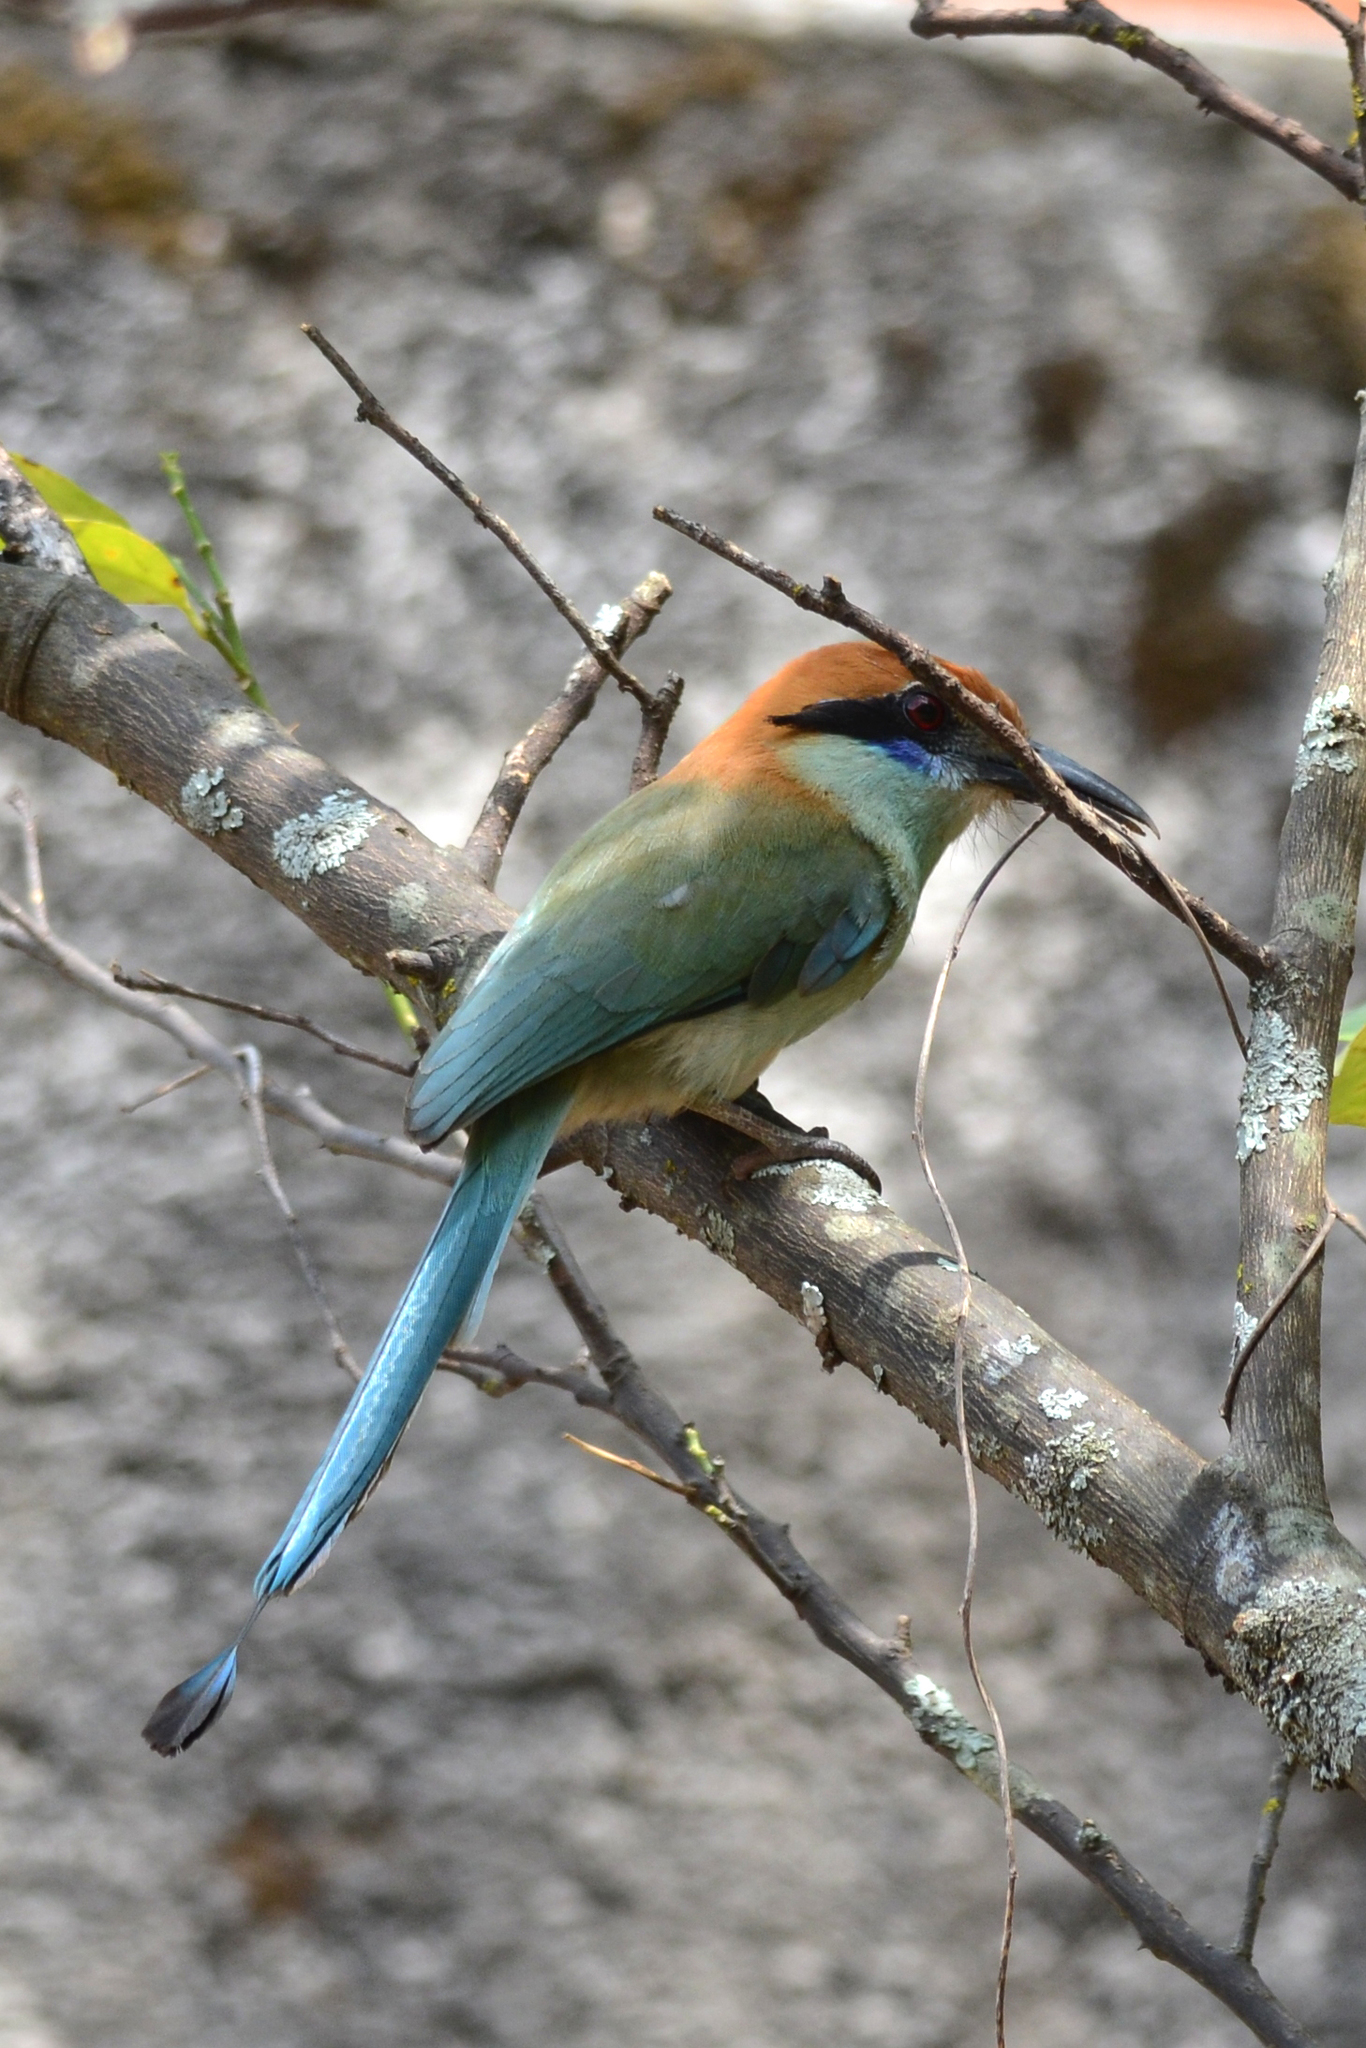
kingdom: Animalia
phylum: Chordata
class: Aves
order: Coraciiformes
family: Momotidae
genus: Momotus
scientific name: Momotus mexicanus
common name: Russet-crowned motmot
